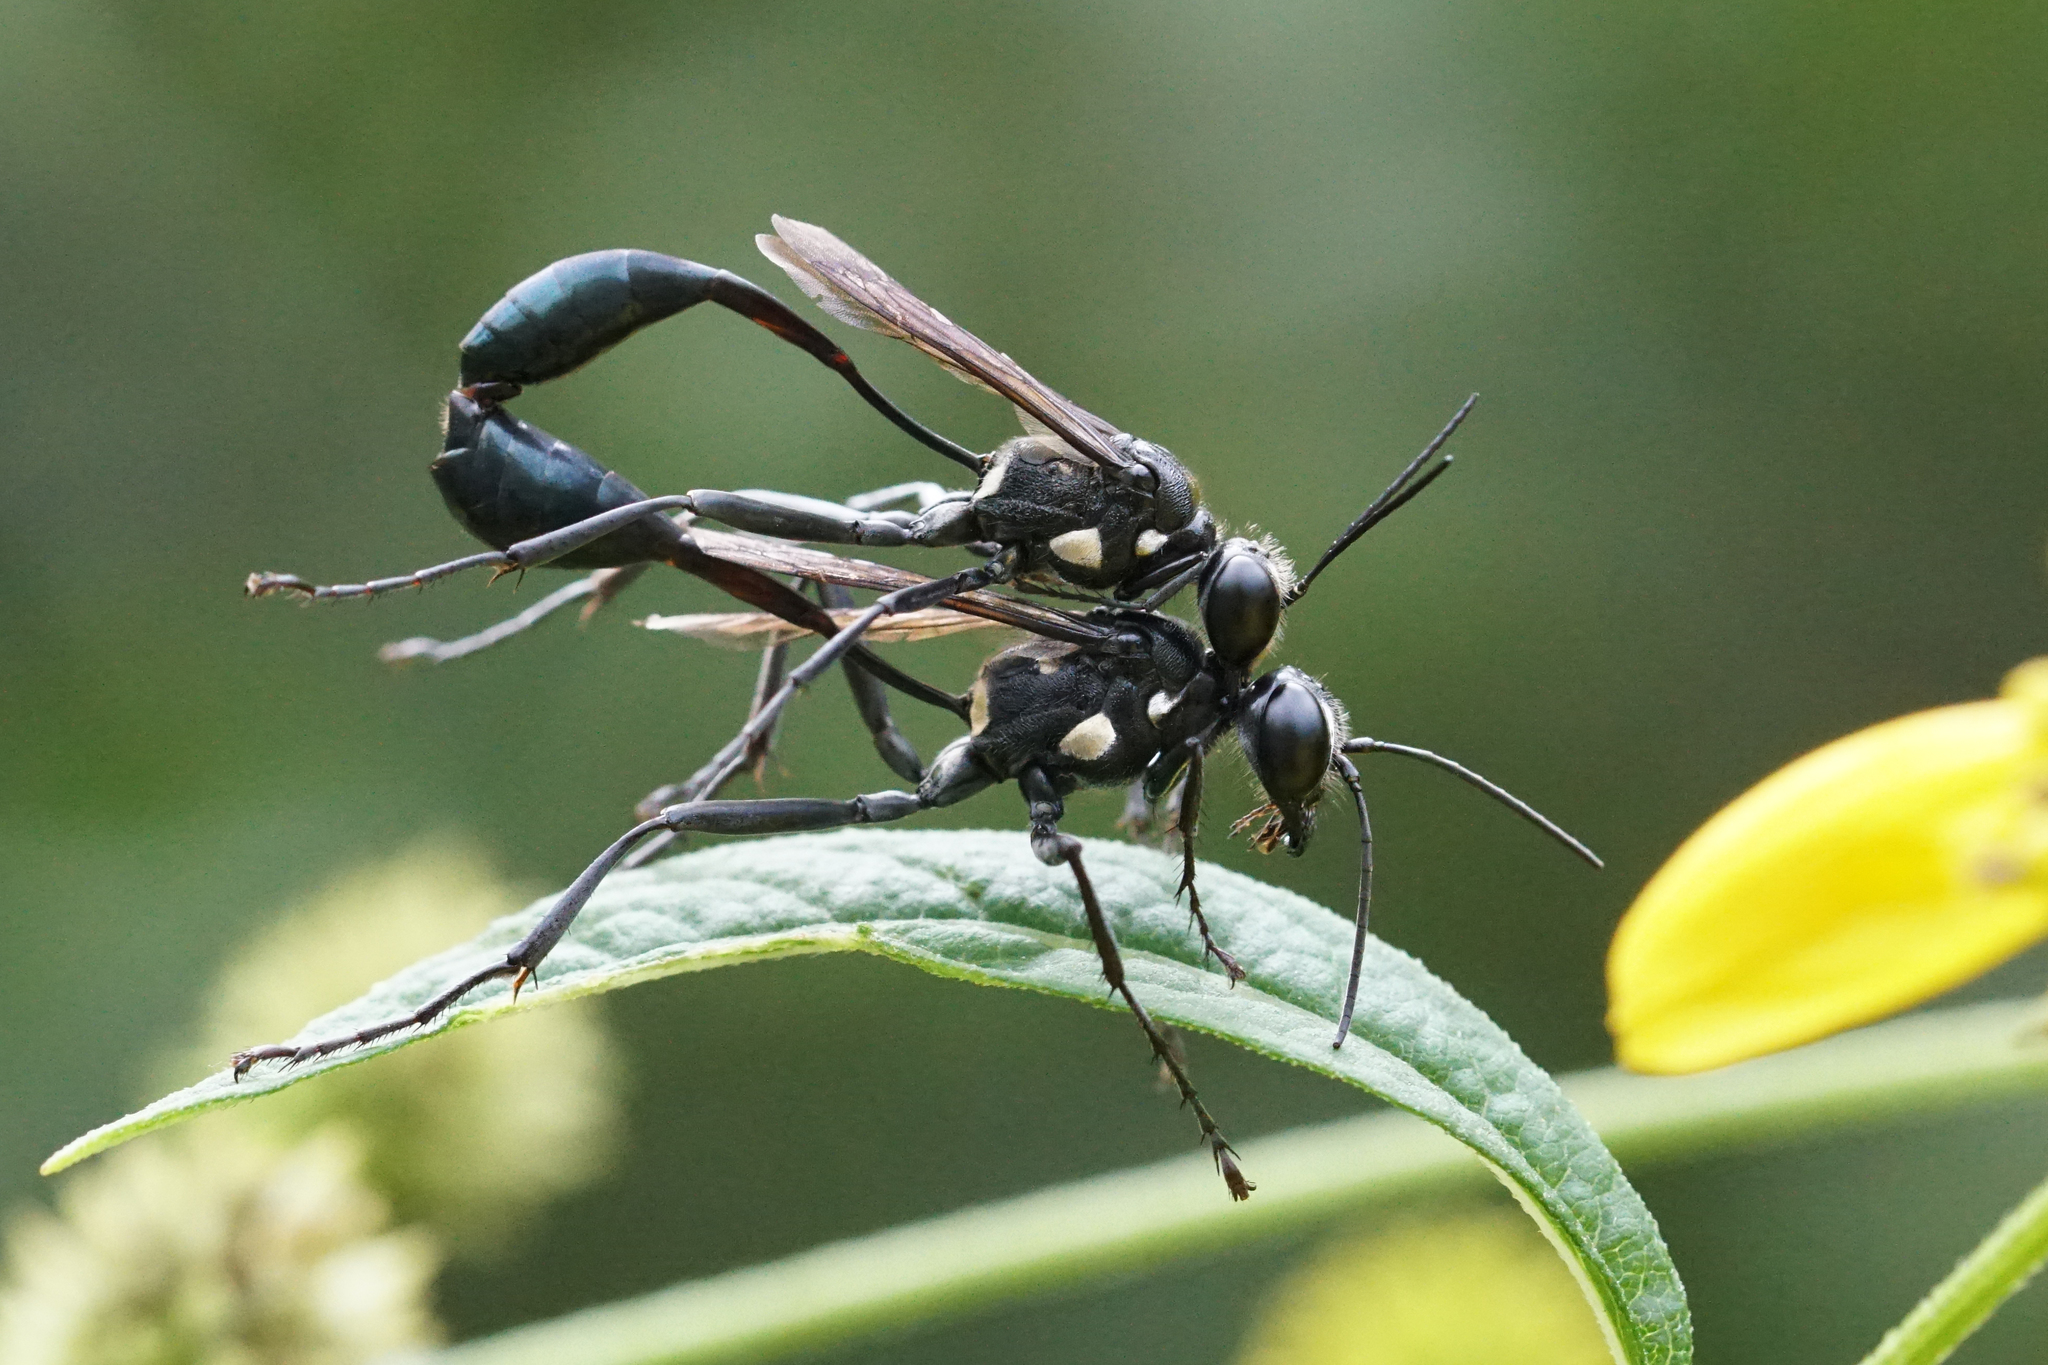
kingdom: Animalia
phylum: Arthropoda
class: Insecta
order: Hymenoptera
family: Sphecidae
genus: Eremnophila
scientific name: Eremnophila aureonotata
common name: Gold-marked thread-waisted wasp
